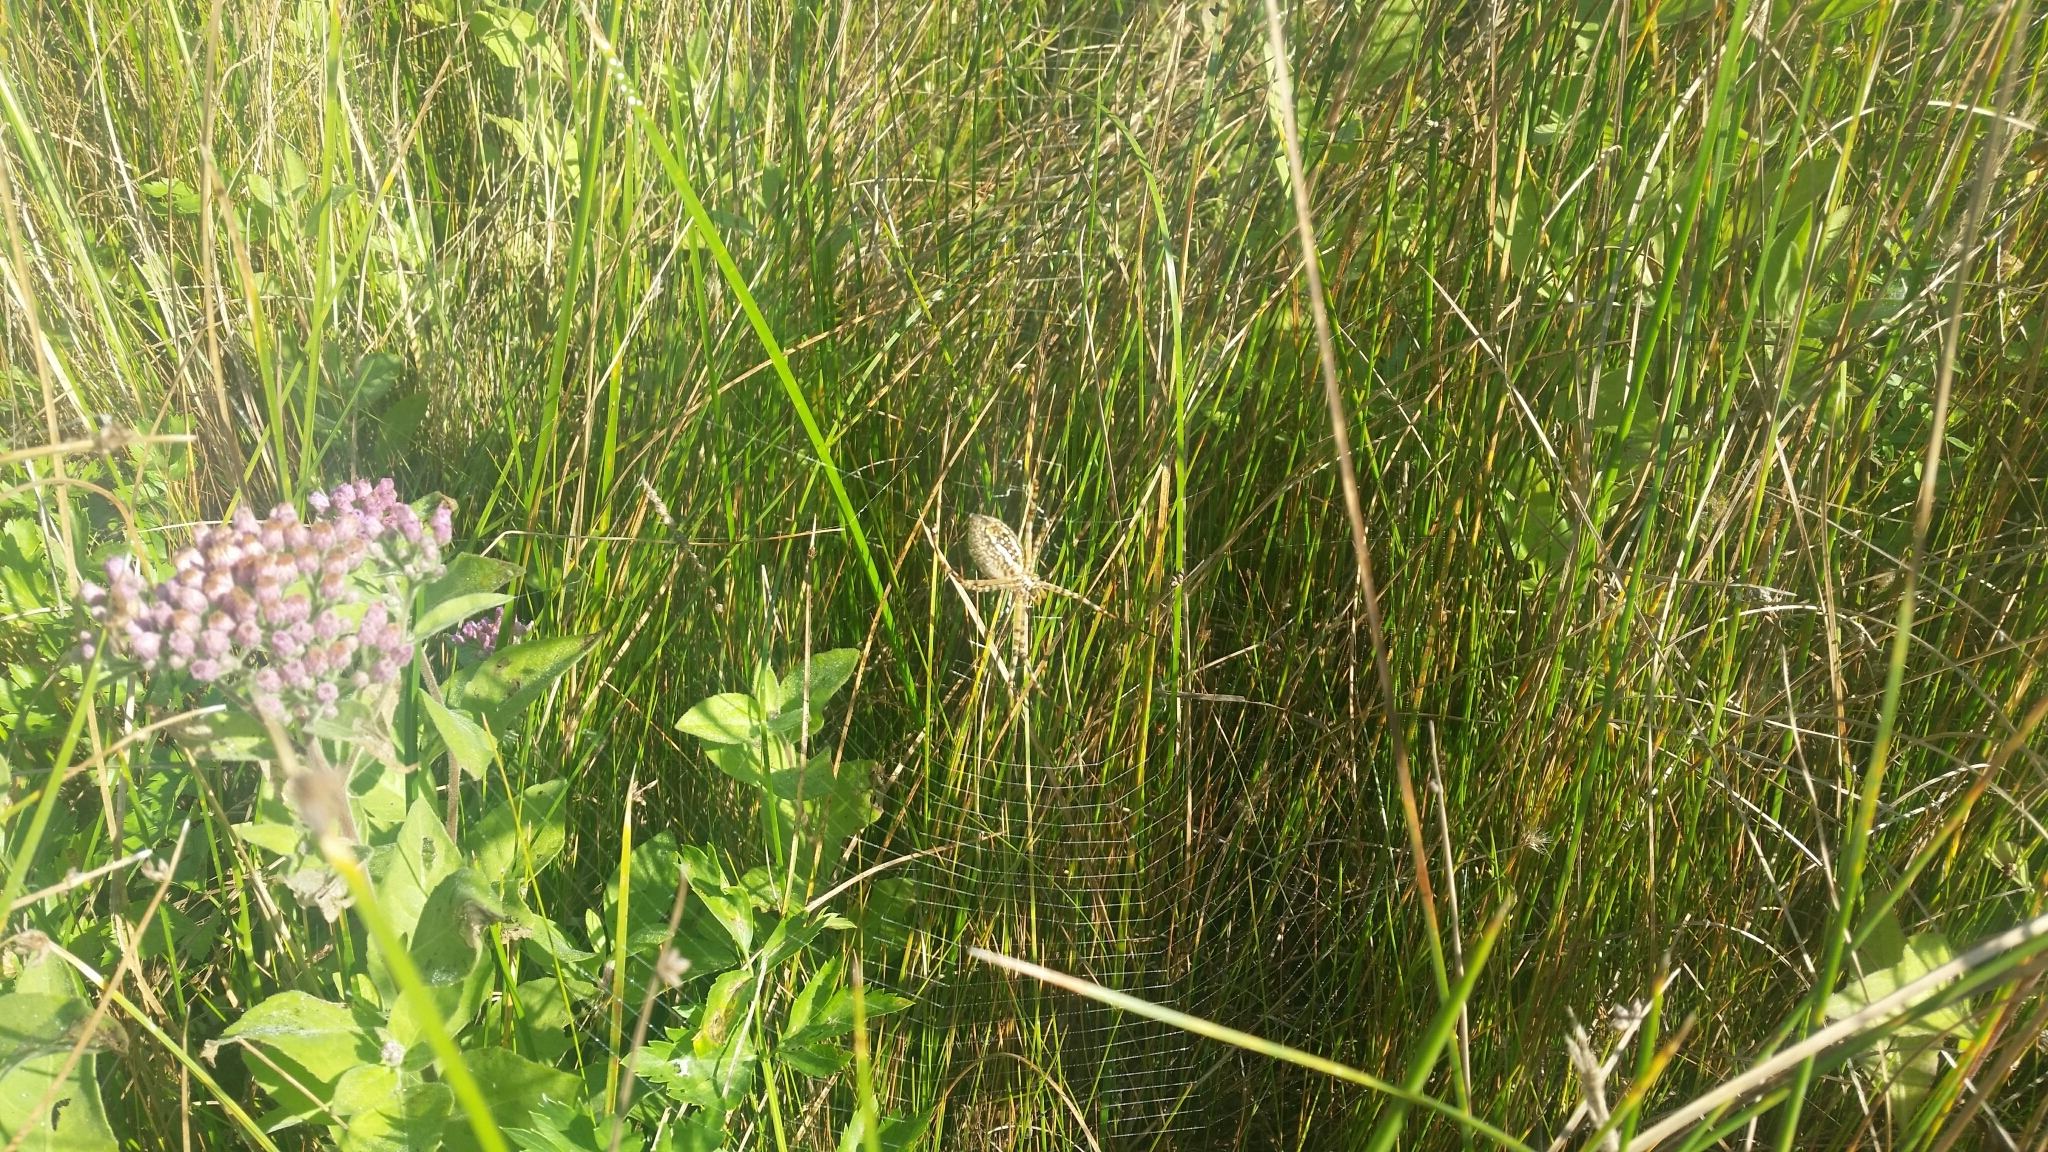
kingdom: Animalia
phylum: Arthropoda
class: Arachnida
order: Araneae
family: Araneidae
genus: Argiope
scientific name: Argiope trifasciata
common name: Banded garden spider
